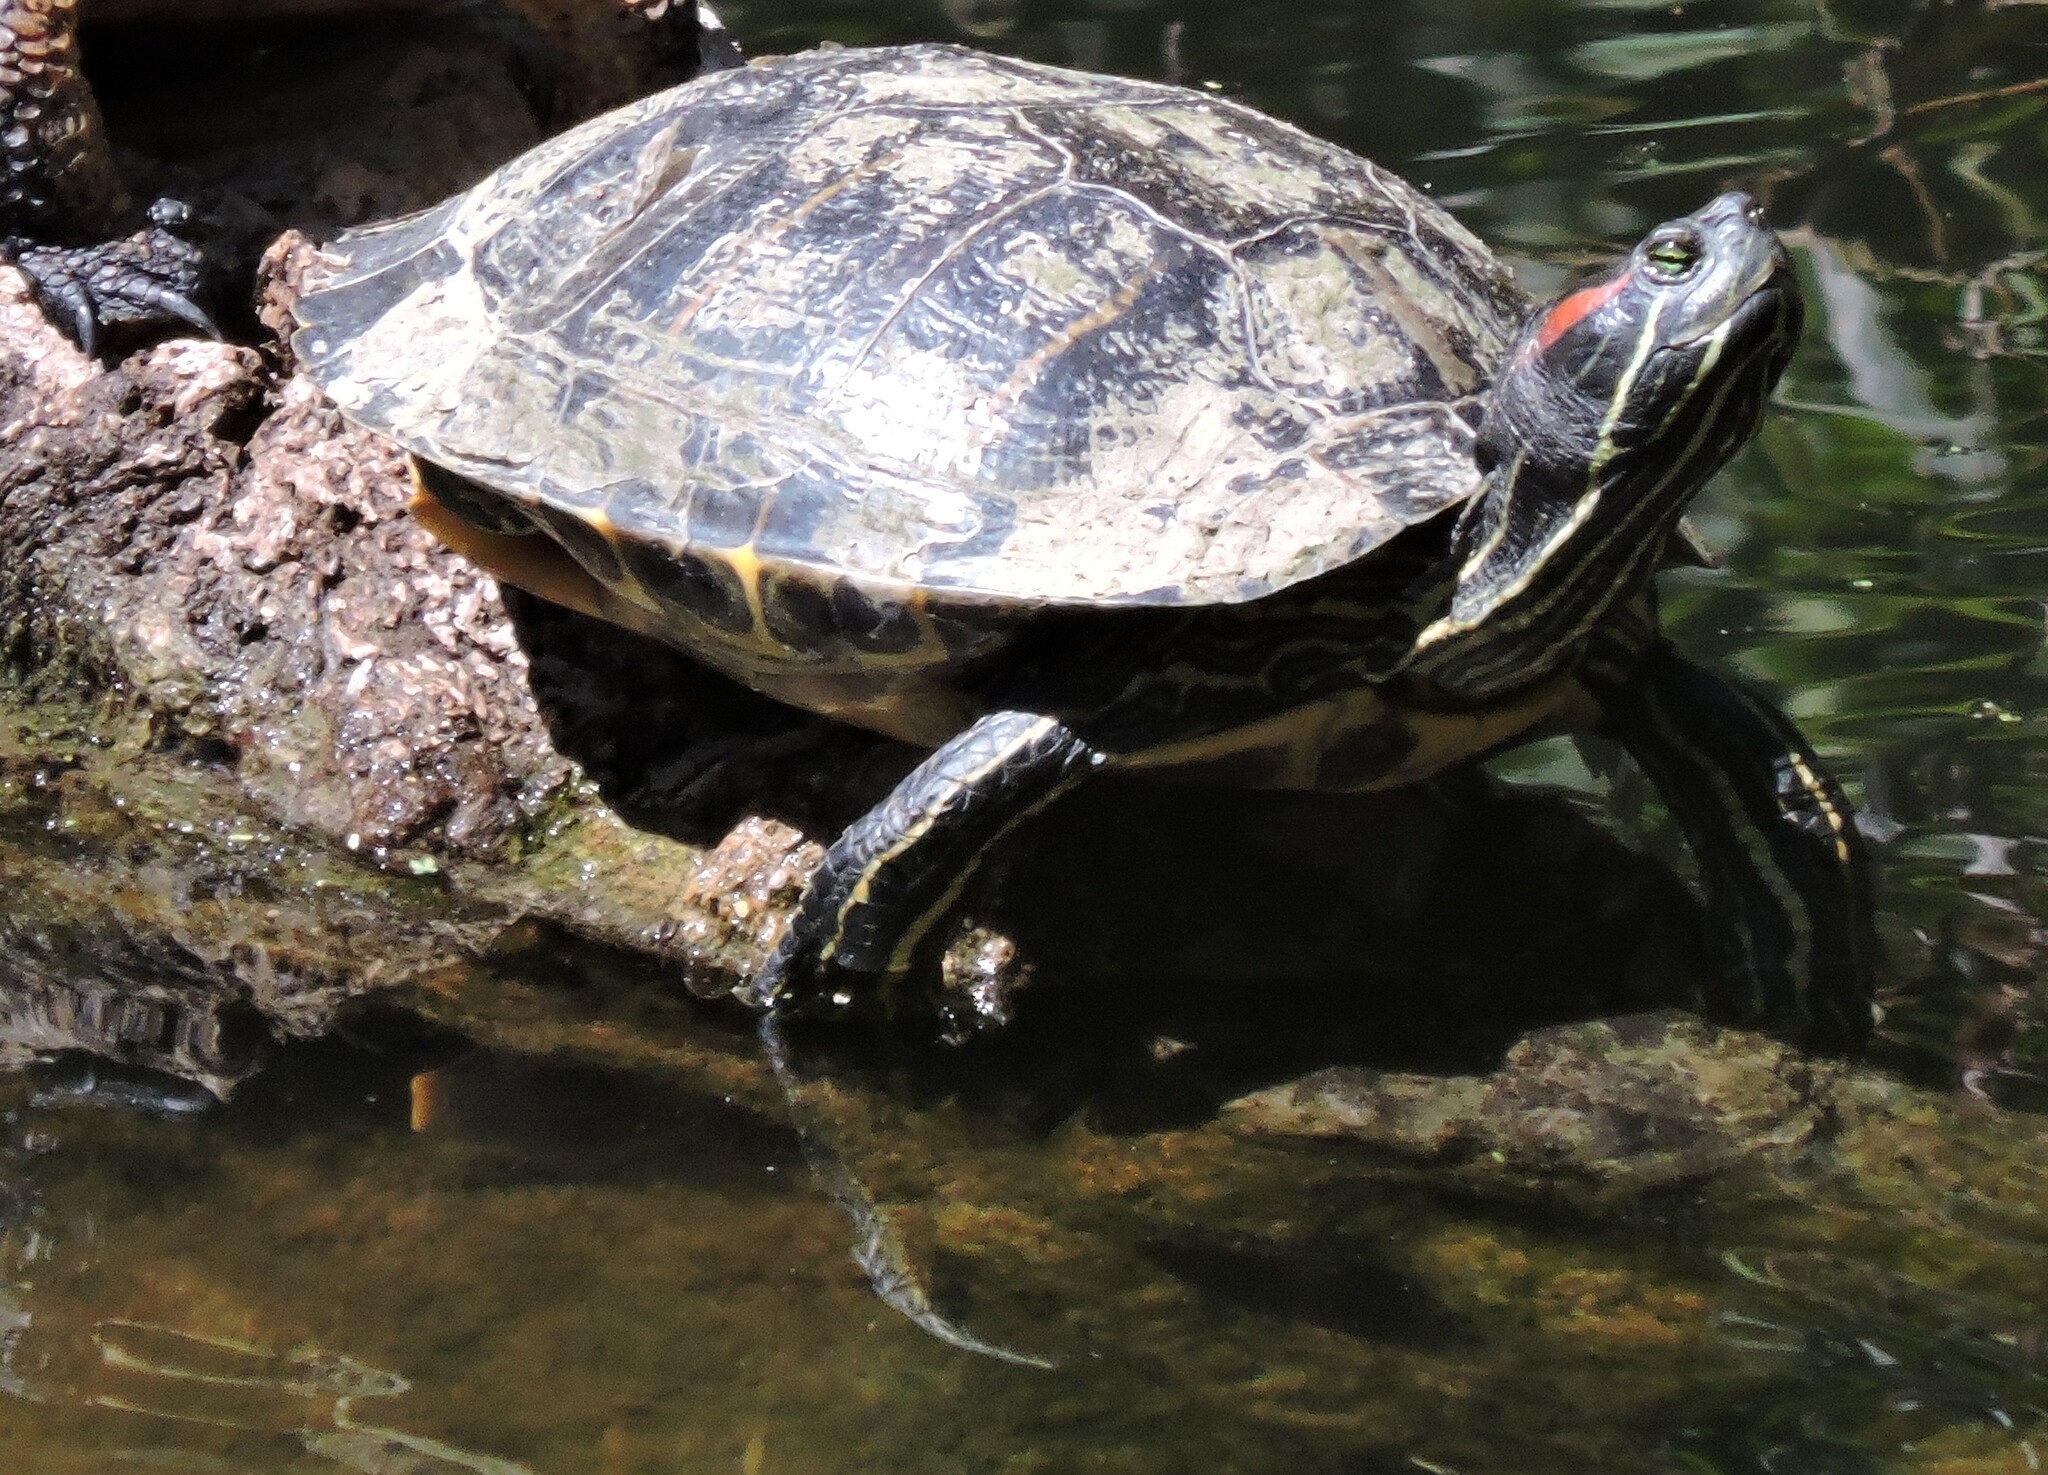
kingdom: Animalia
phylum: Chordata
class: Testudines
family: Emydidae
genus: Trachemys
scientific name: Trachemys scripta
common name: Slider
